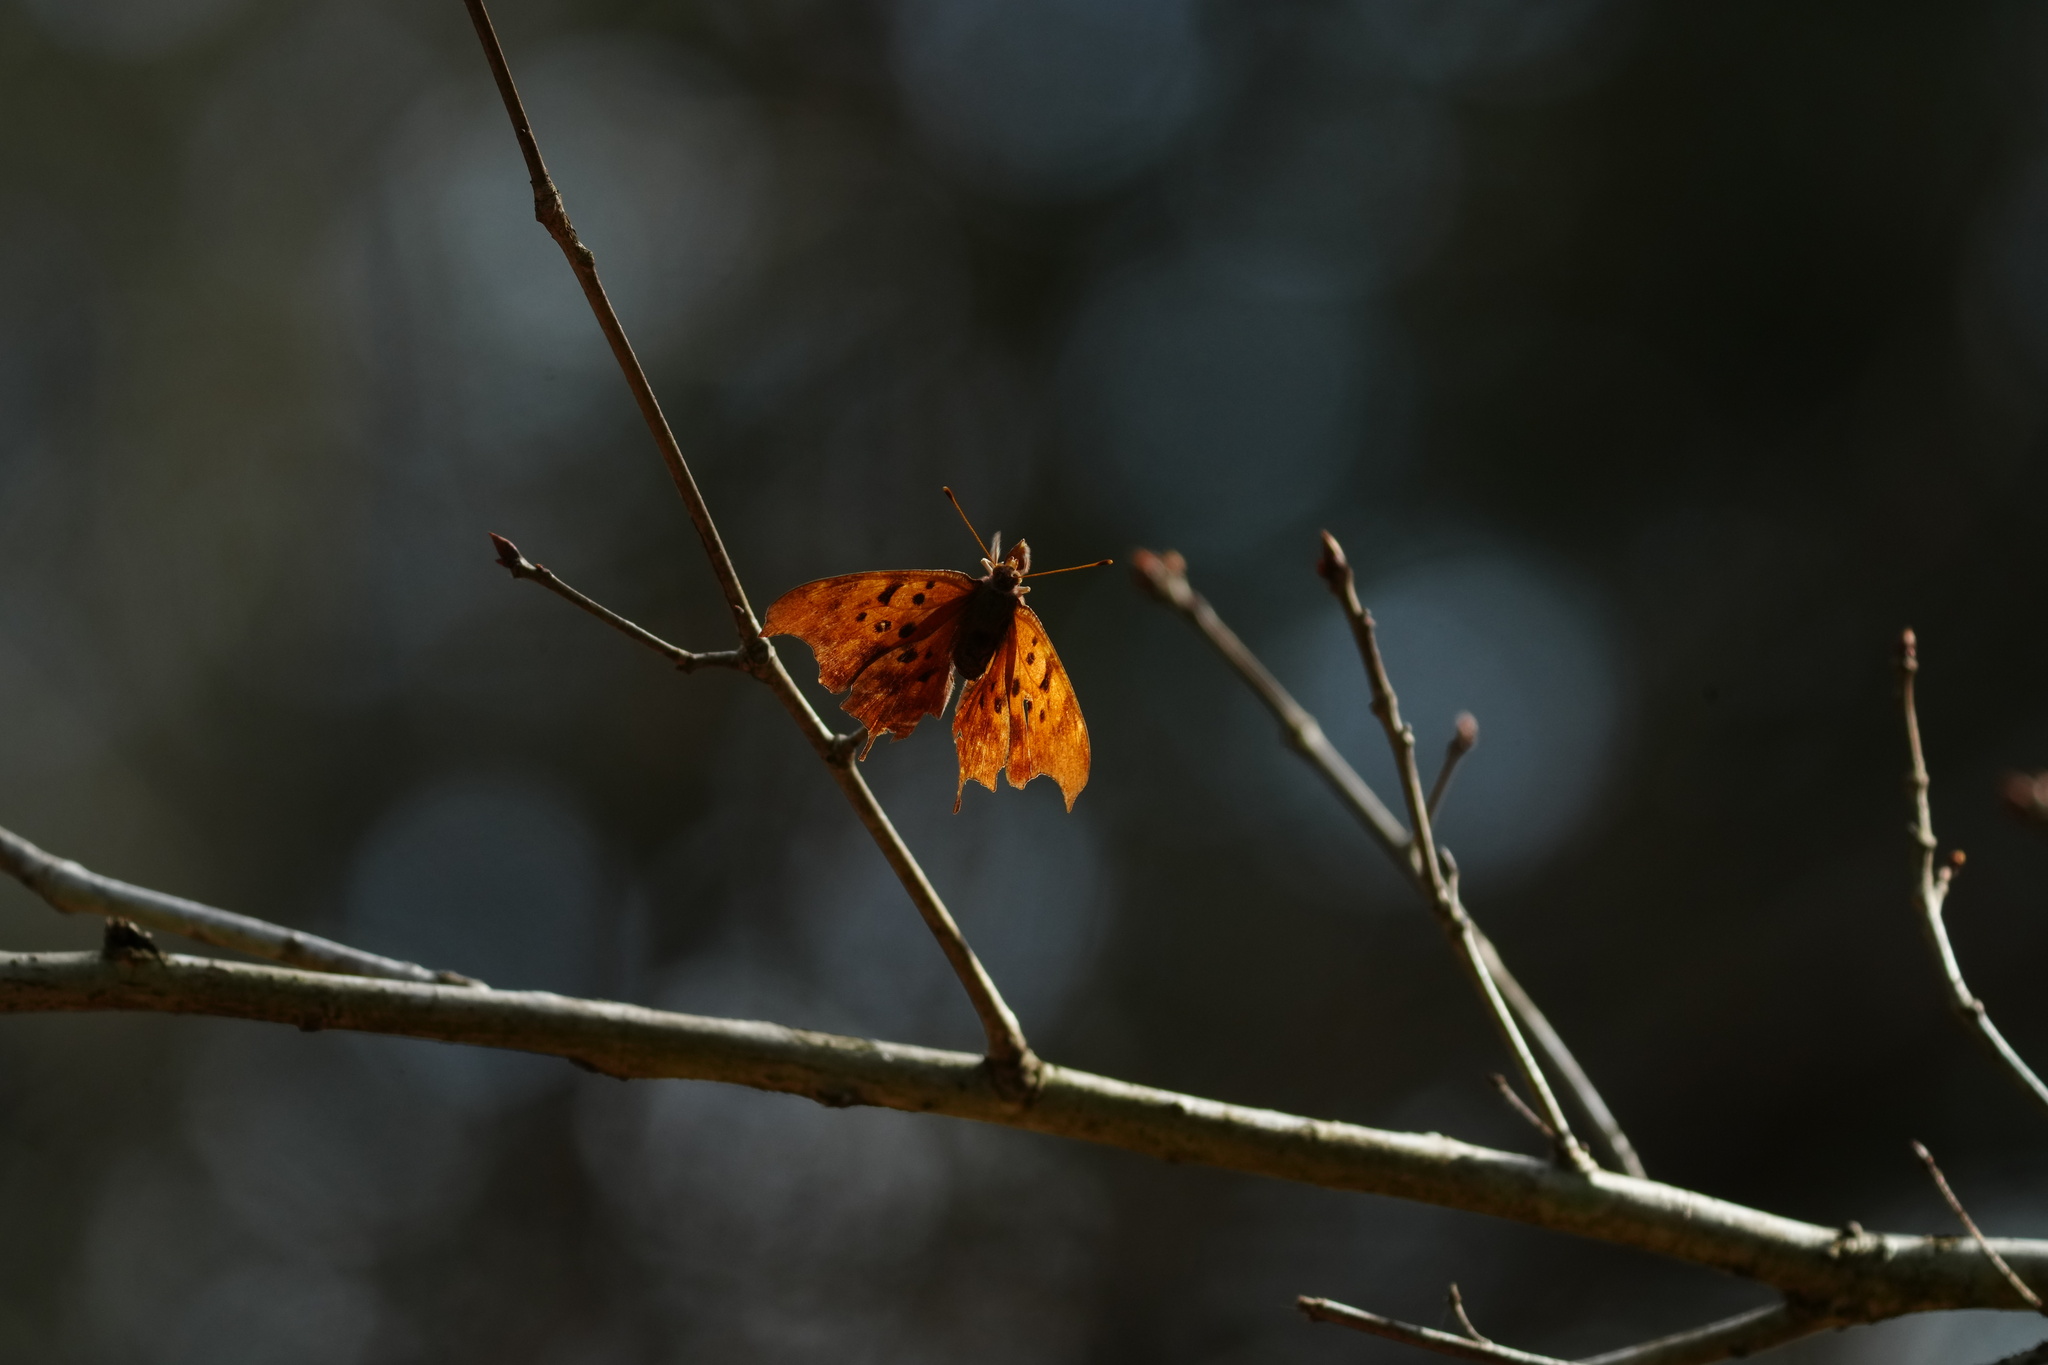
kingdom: Animalia
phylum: Arthropoda
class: Insecta
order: Lepidoptera
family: Nymphalidae
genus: Polygonia
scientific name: Polygonia interrogationis
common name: Question mark
